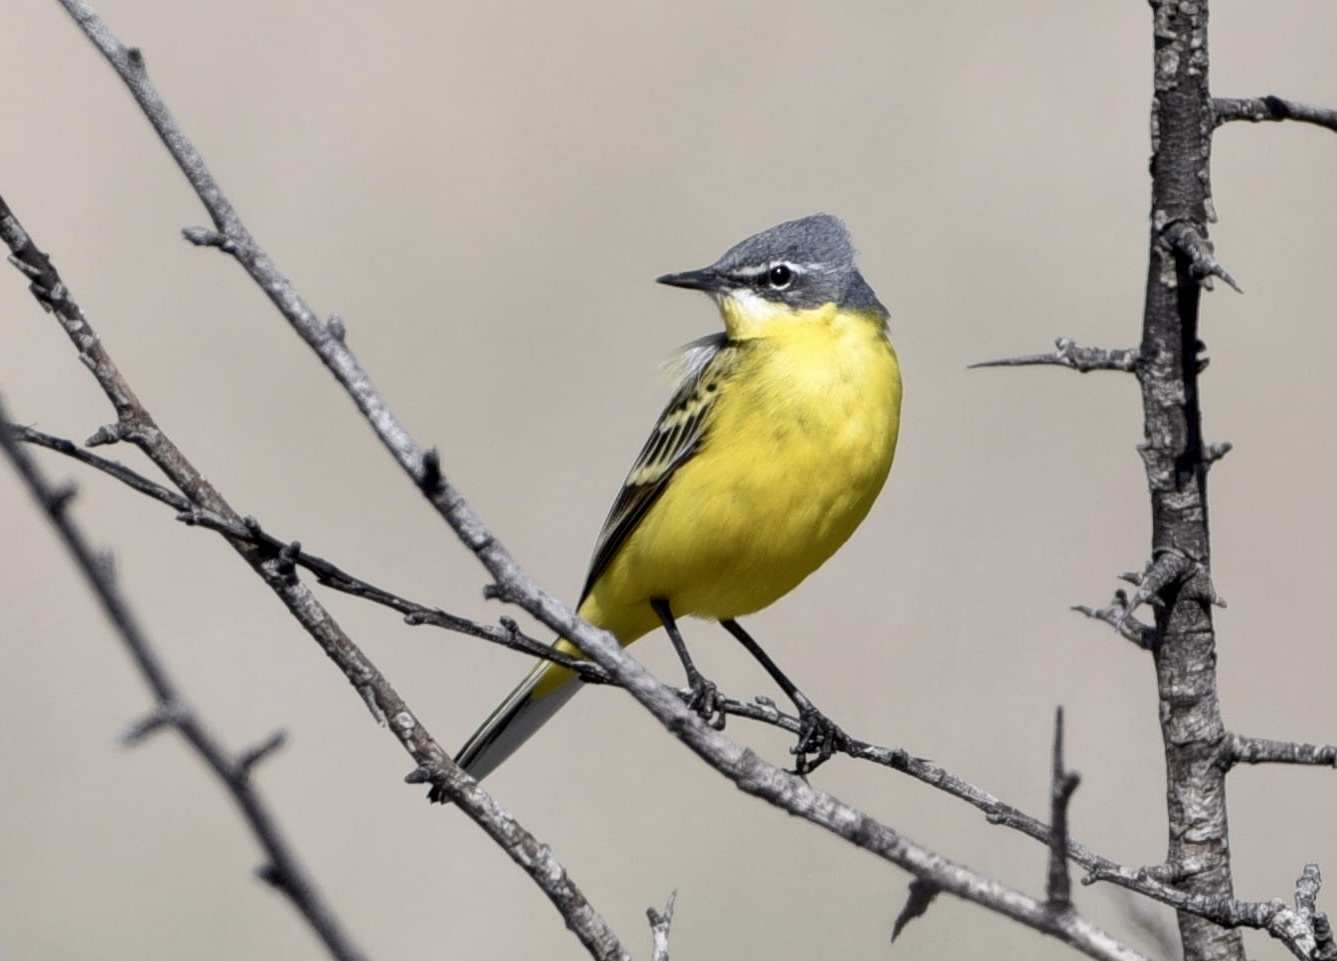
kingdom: Animalia
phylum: Chordata
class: Aves
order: Passeriformes
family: Motacillidae
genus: Motacilla
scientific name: Motacilla flava
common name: Western yellow wagtail
